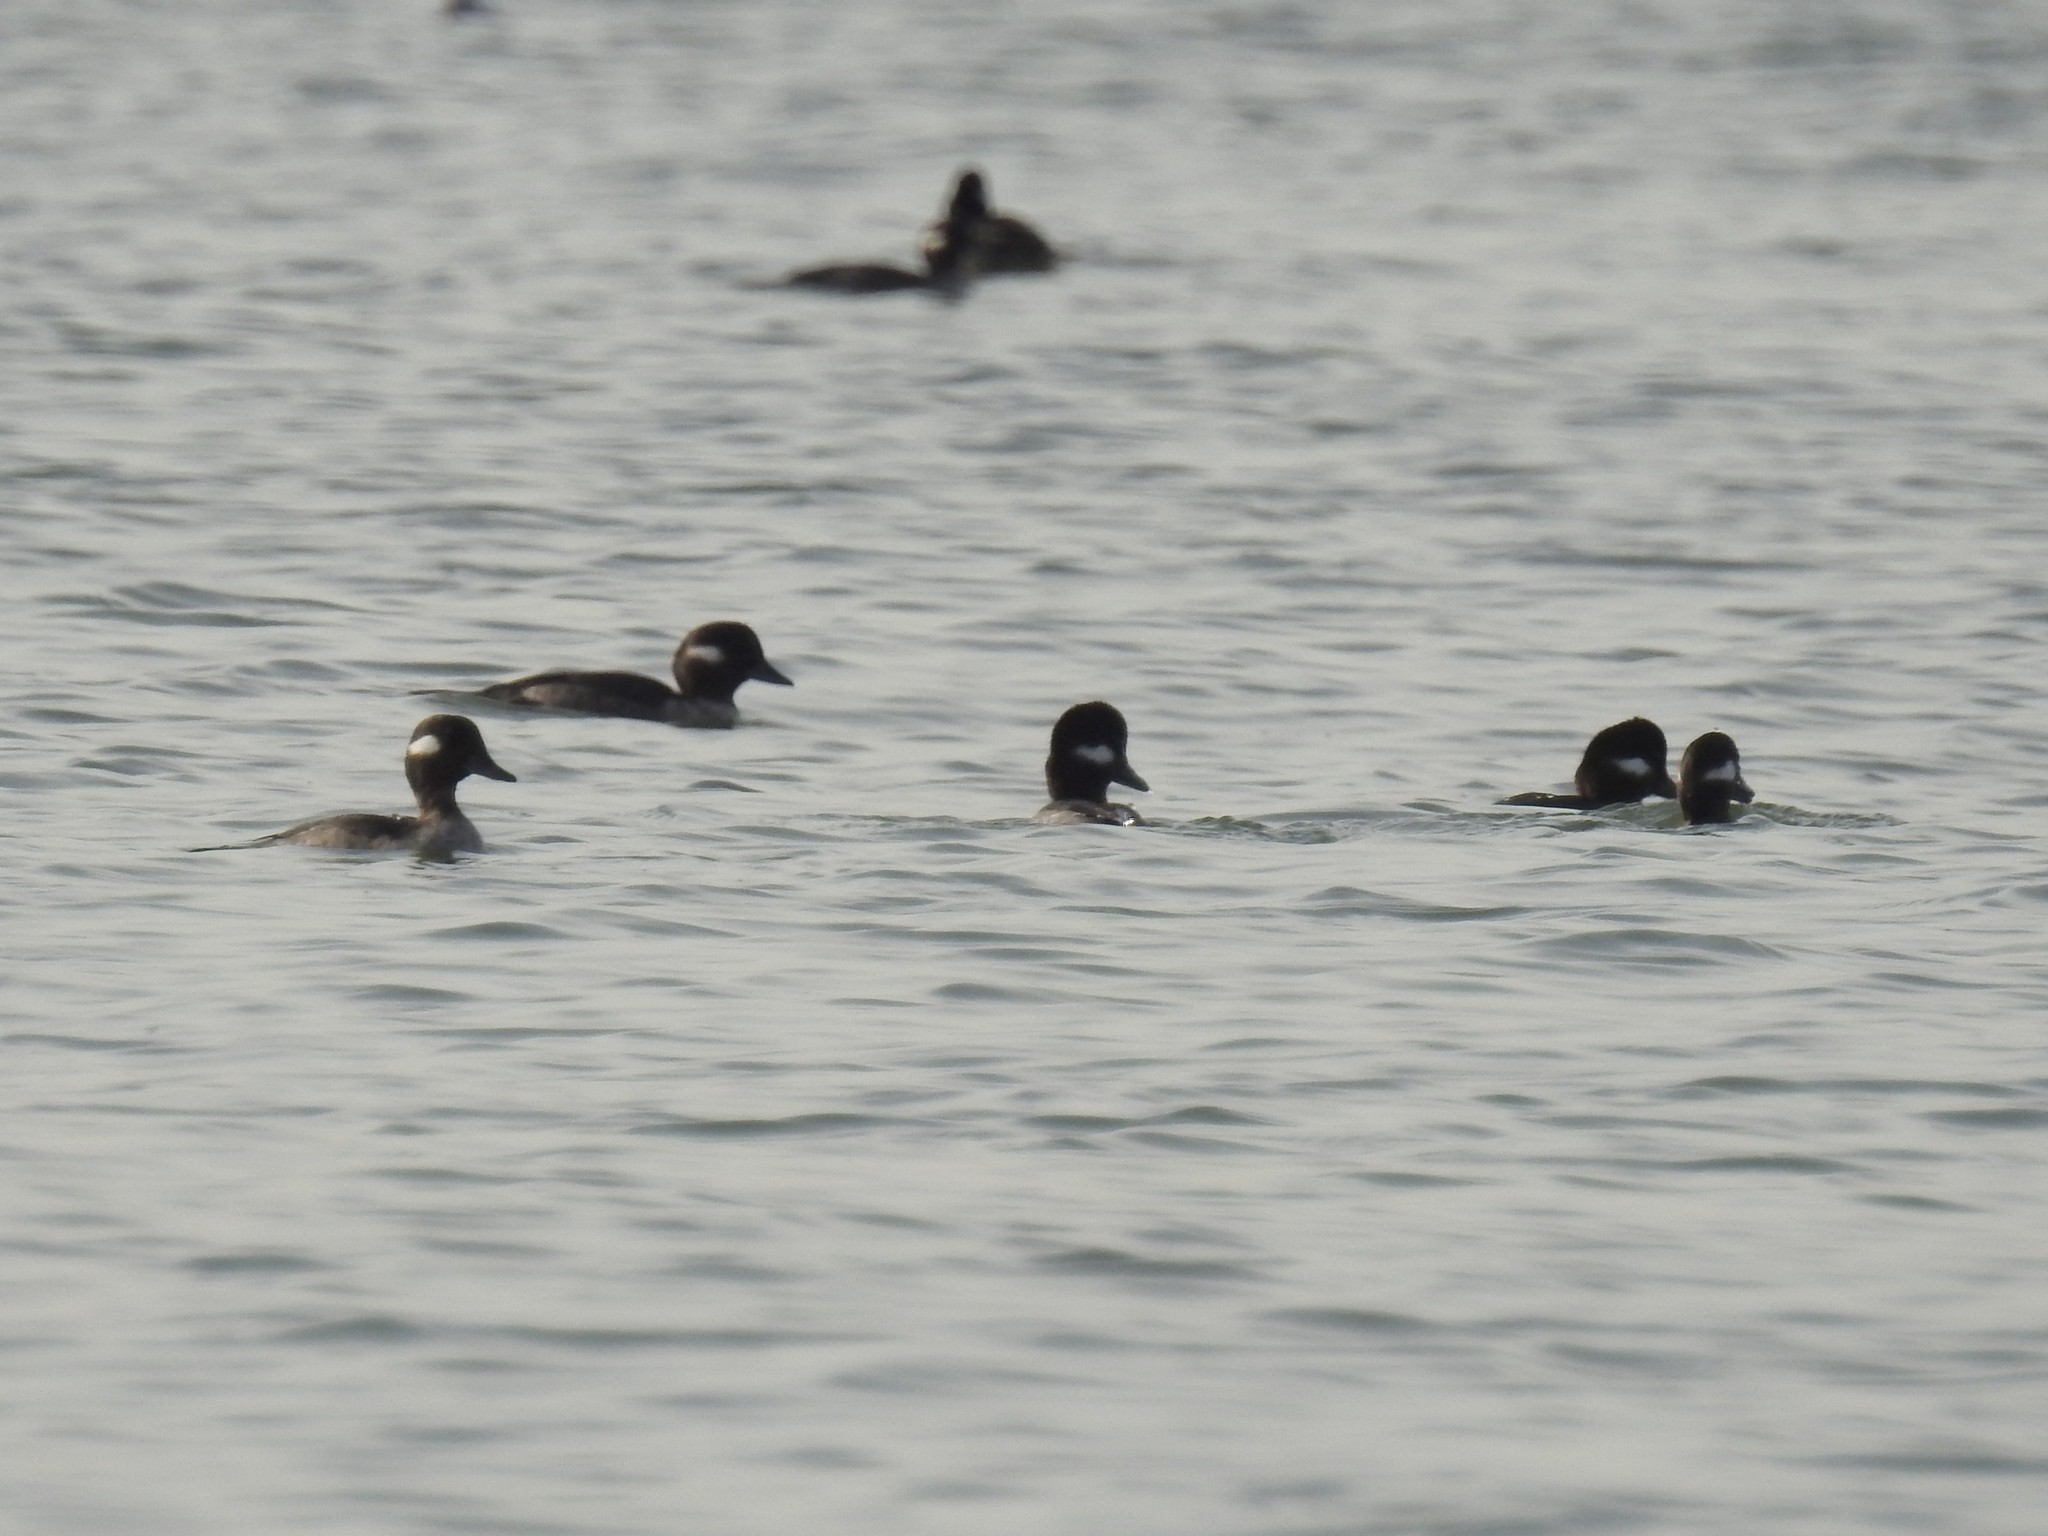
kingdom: Animalia
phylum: Chordata
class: Aves
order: Anseriformes
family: Anatidae
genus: Bucephala
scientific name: Bucephala albeola
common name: Bufflehead
